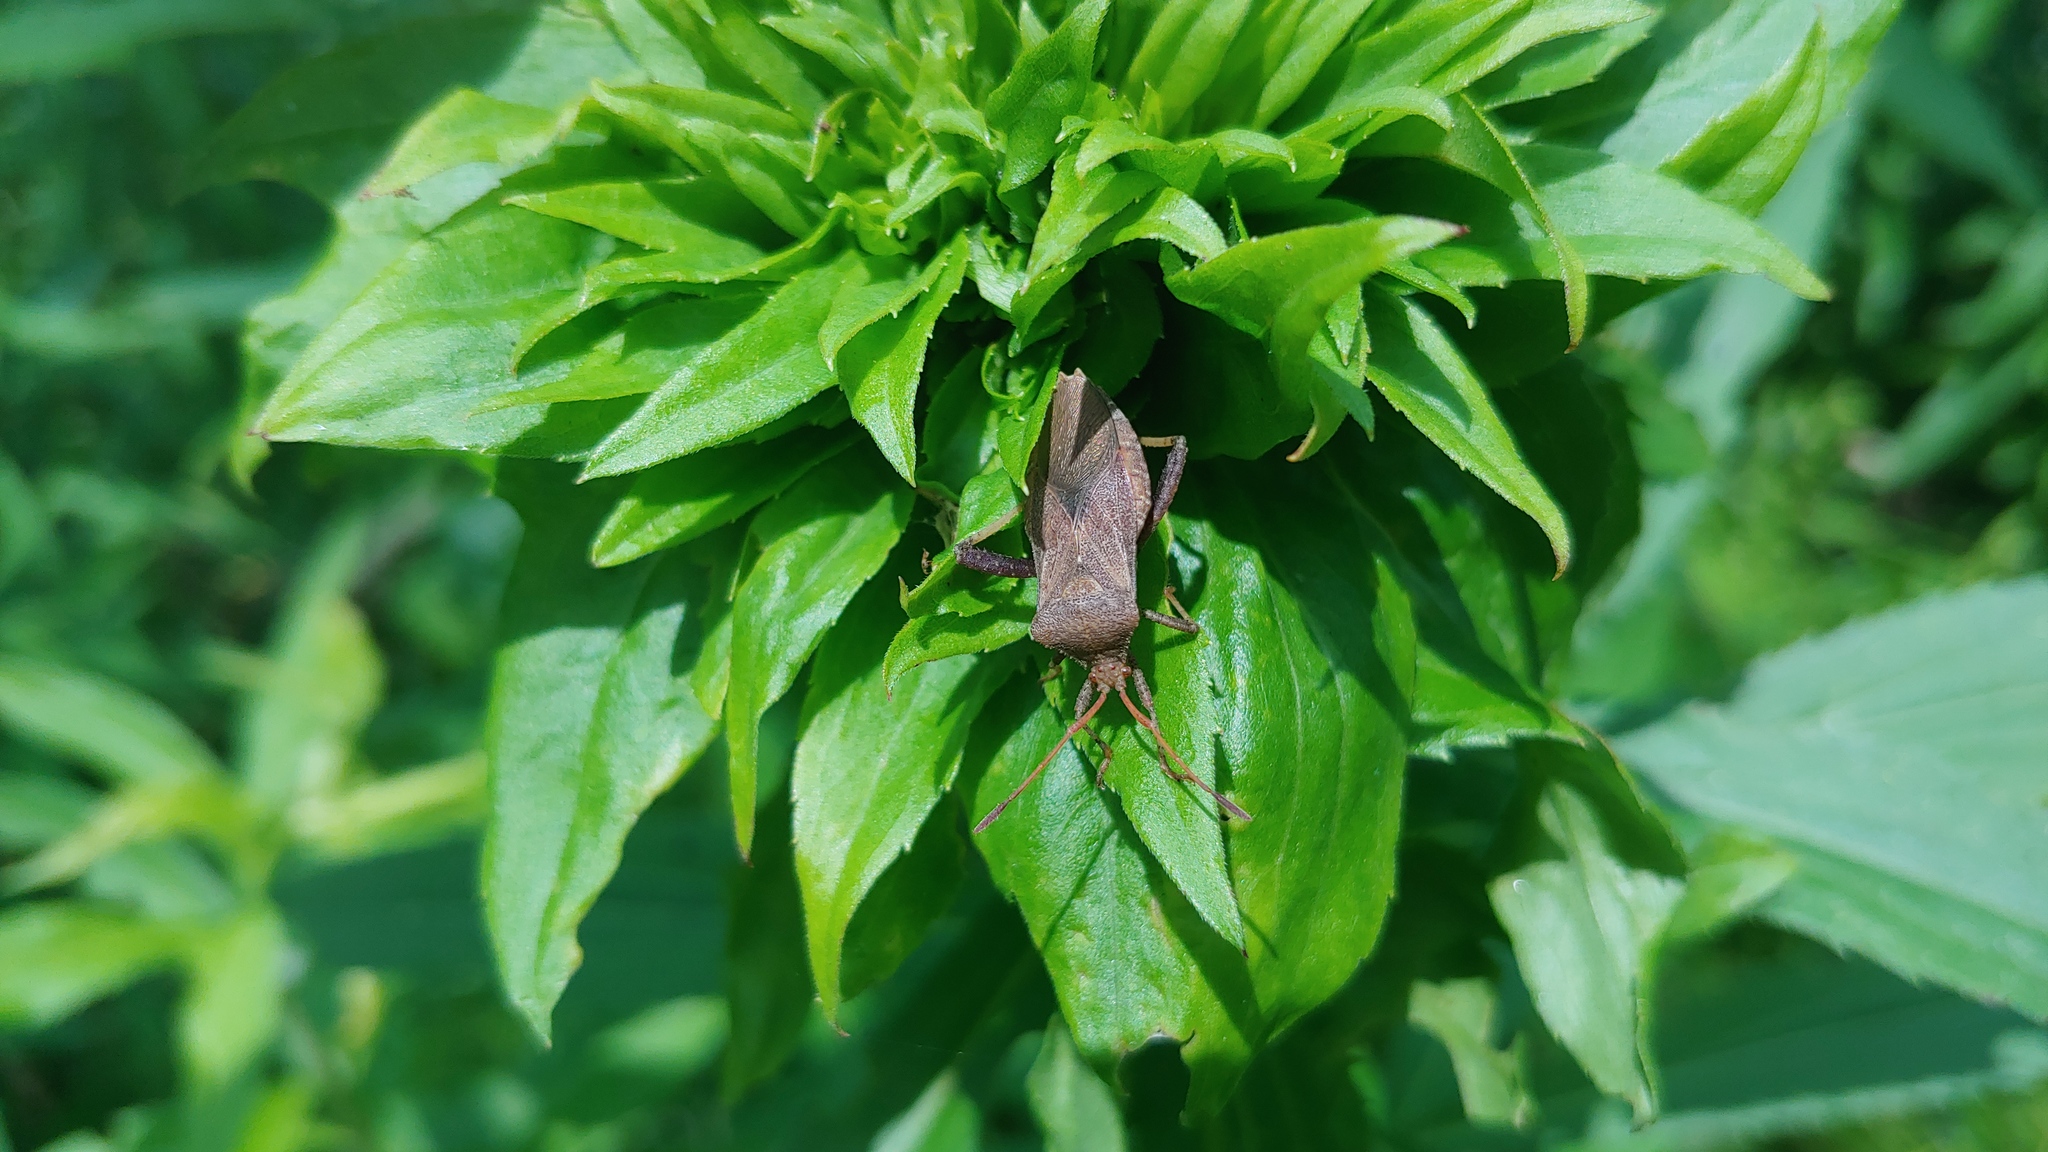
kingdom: Animalia
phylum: Arthropoda
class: Insecta
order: Hemiptera
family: Coreidae
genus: Euthochtha
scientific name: Euthochtha galeator
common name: Helmeted squash bug
